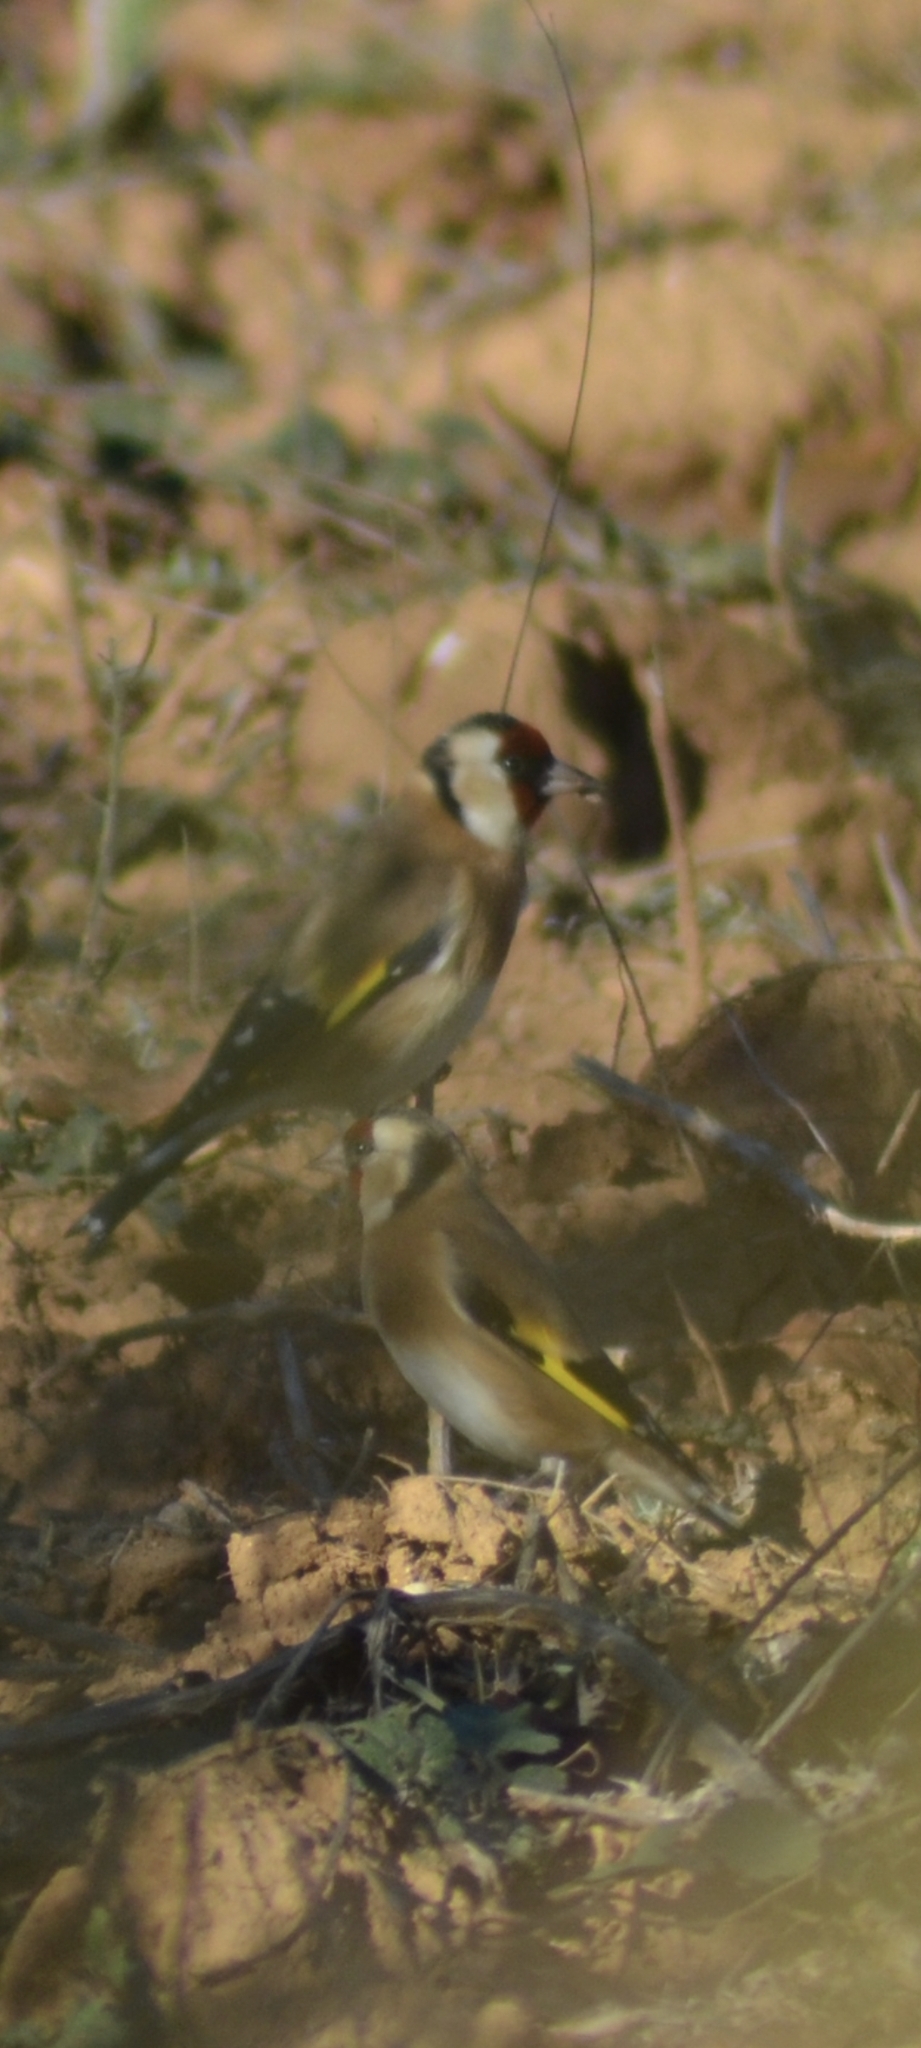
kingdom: Animalia
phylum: Chordata
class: Aves
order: Passeriformes
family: Fringillidae
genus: Carduelis
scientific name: Carduelis carduelis
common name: European goldfinch
